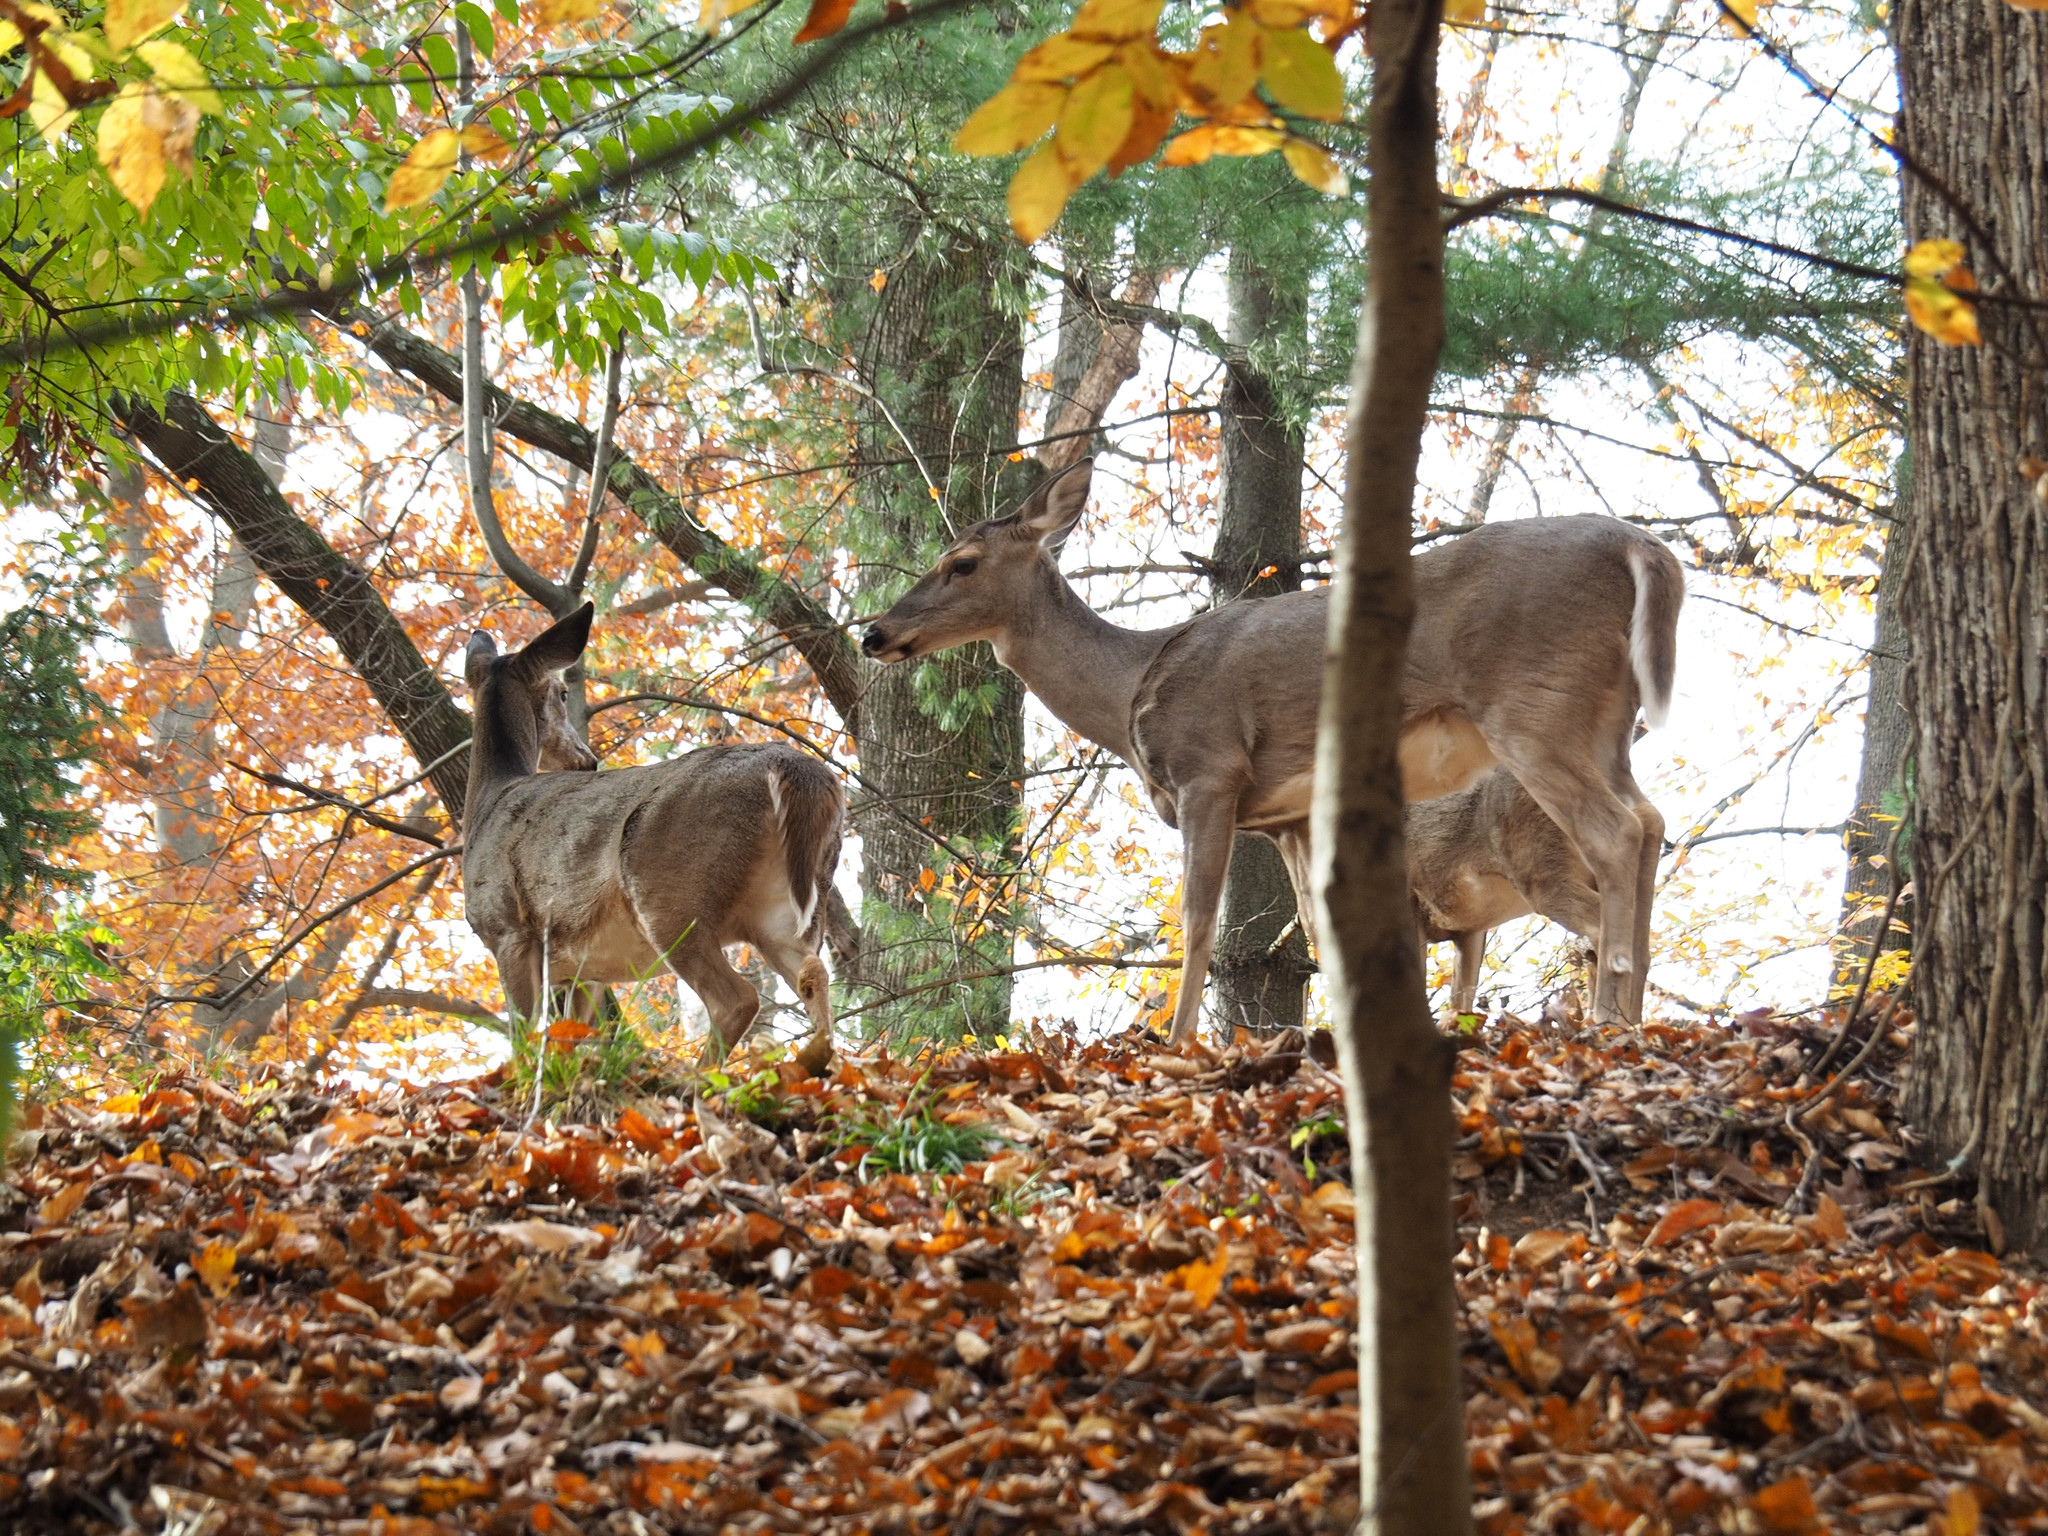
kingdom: Animalia
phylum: Chordata
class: Mammalia
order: Artiodactyla
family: Cervidae
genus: Odocoileus
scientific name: Odocoileus virginianus
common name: White-tailed deer
